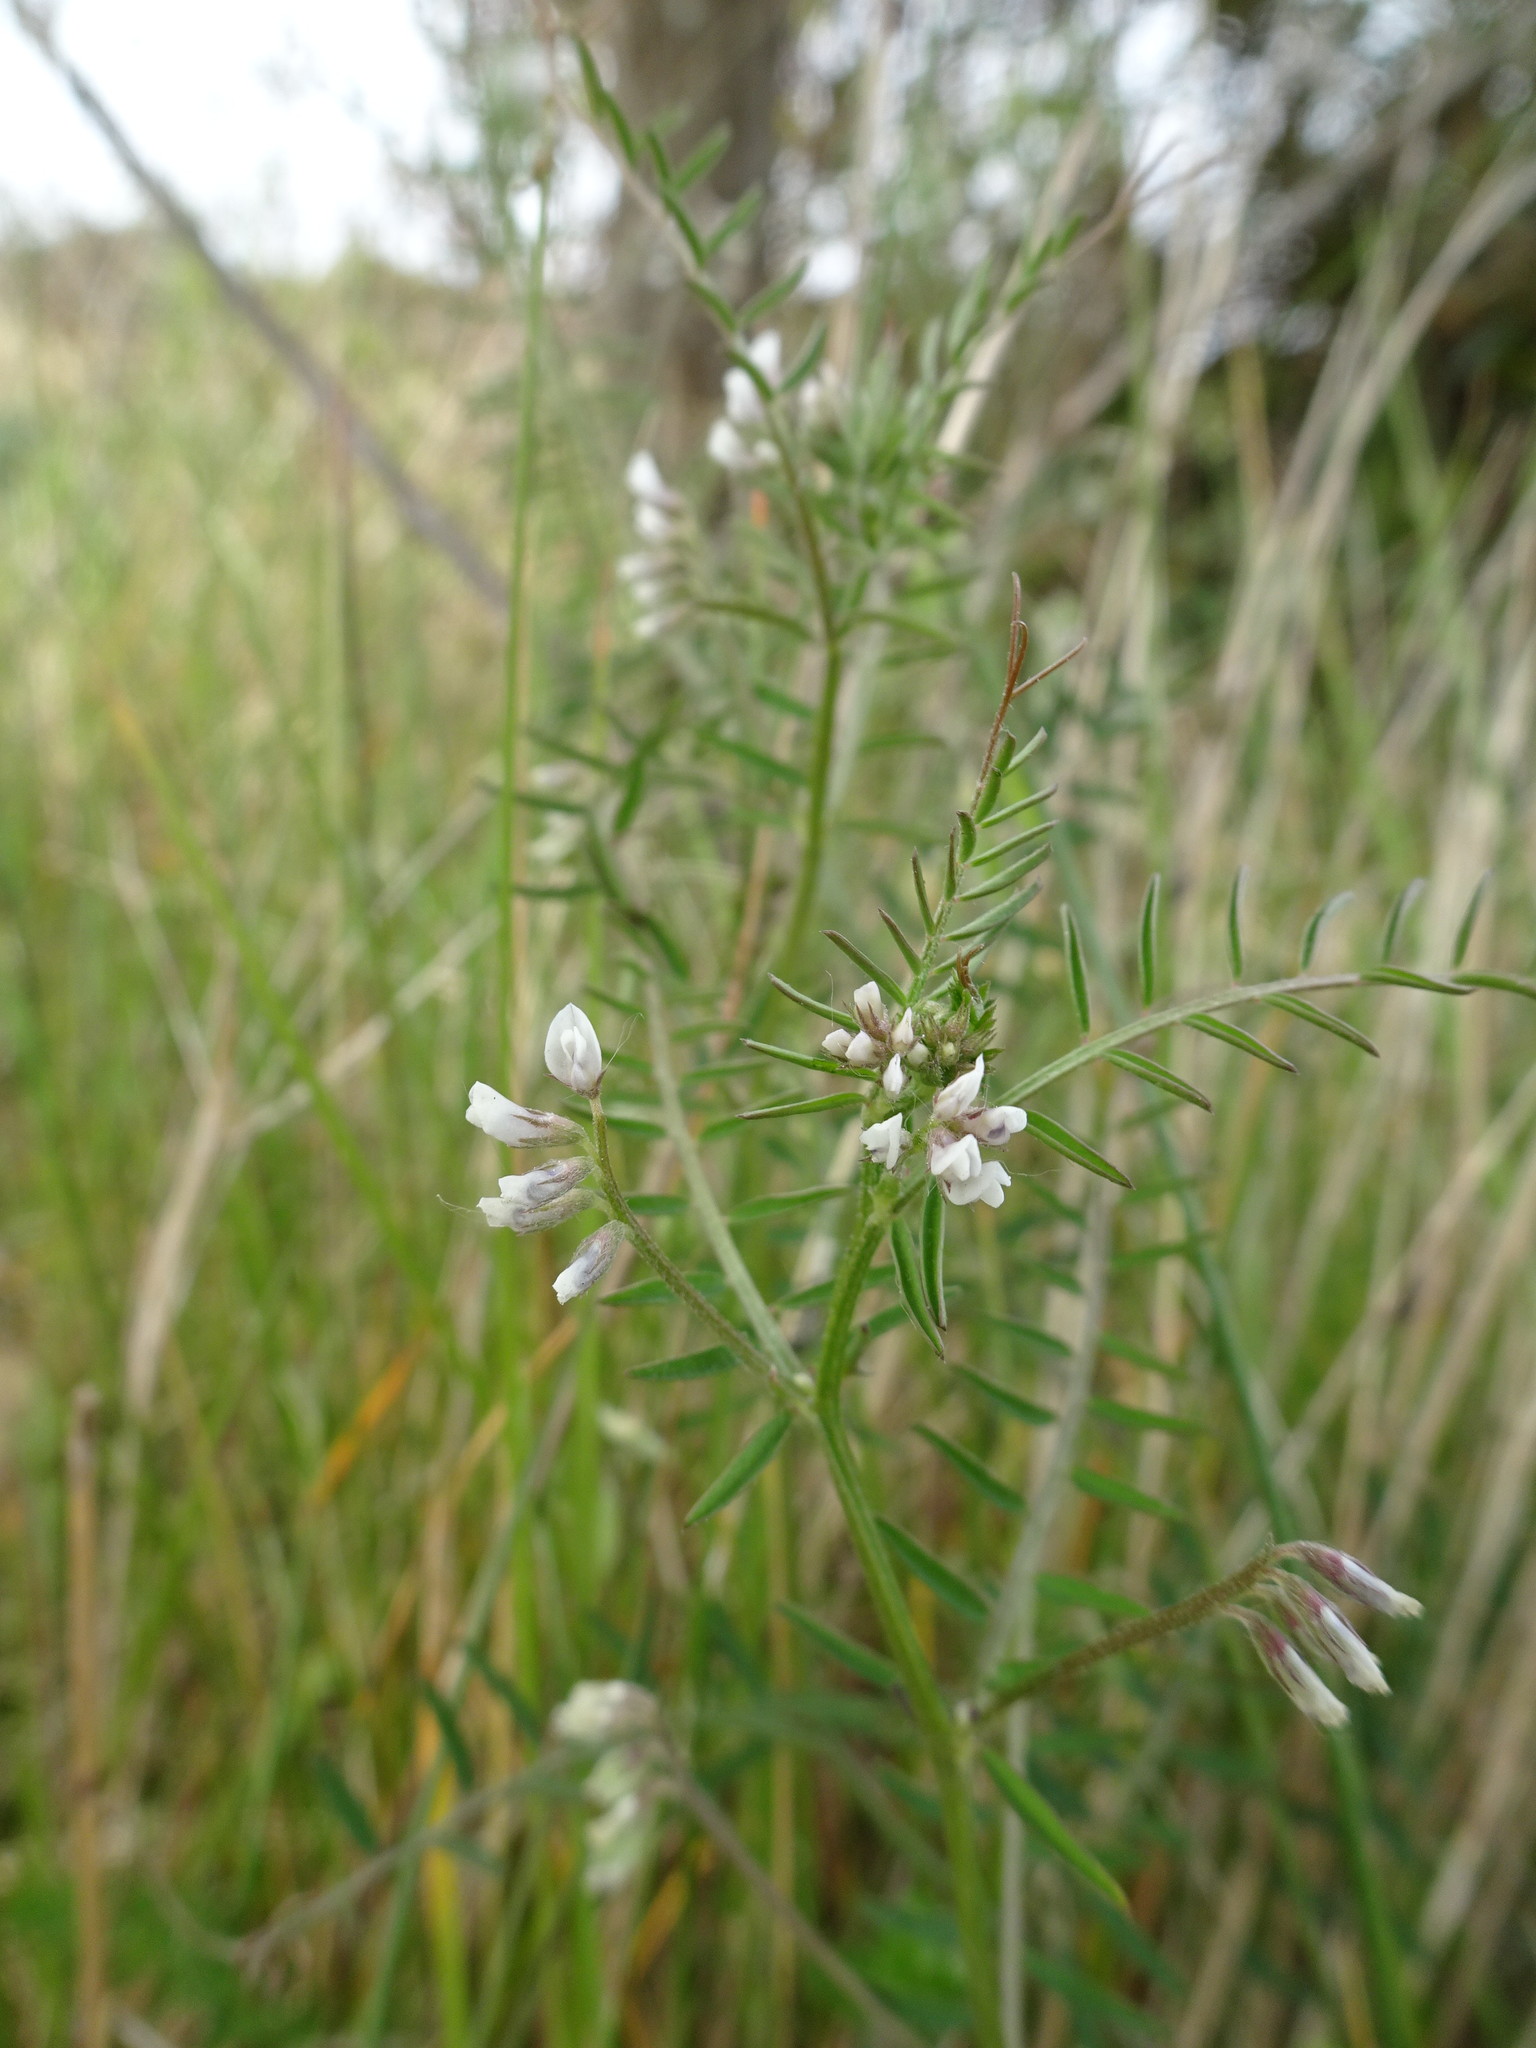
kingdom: Plantae
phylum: Tracheophyta
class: Magnoliopsida
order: Fabales
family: Fabaceae
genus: Vicia
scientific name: Vicia hirsuta
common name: Tiny vetch
